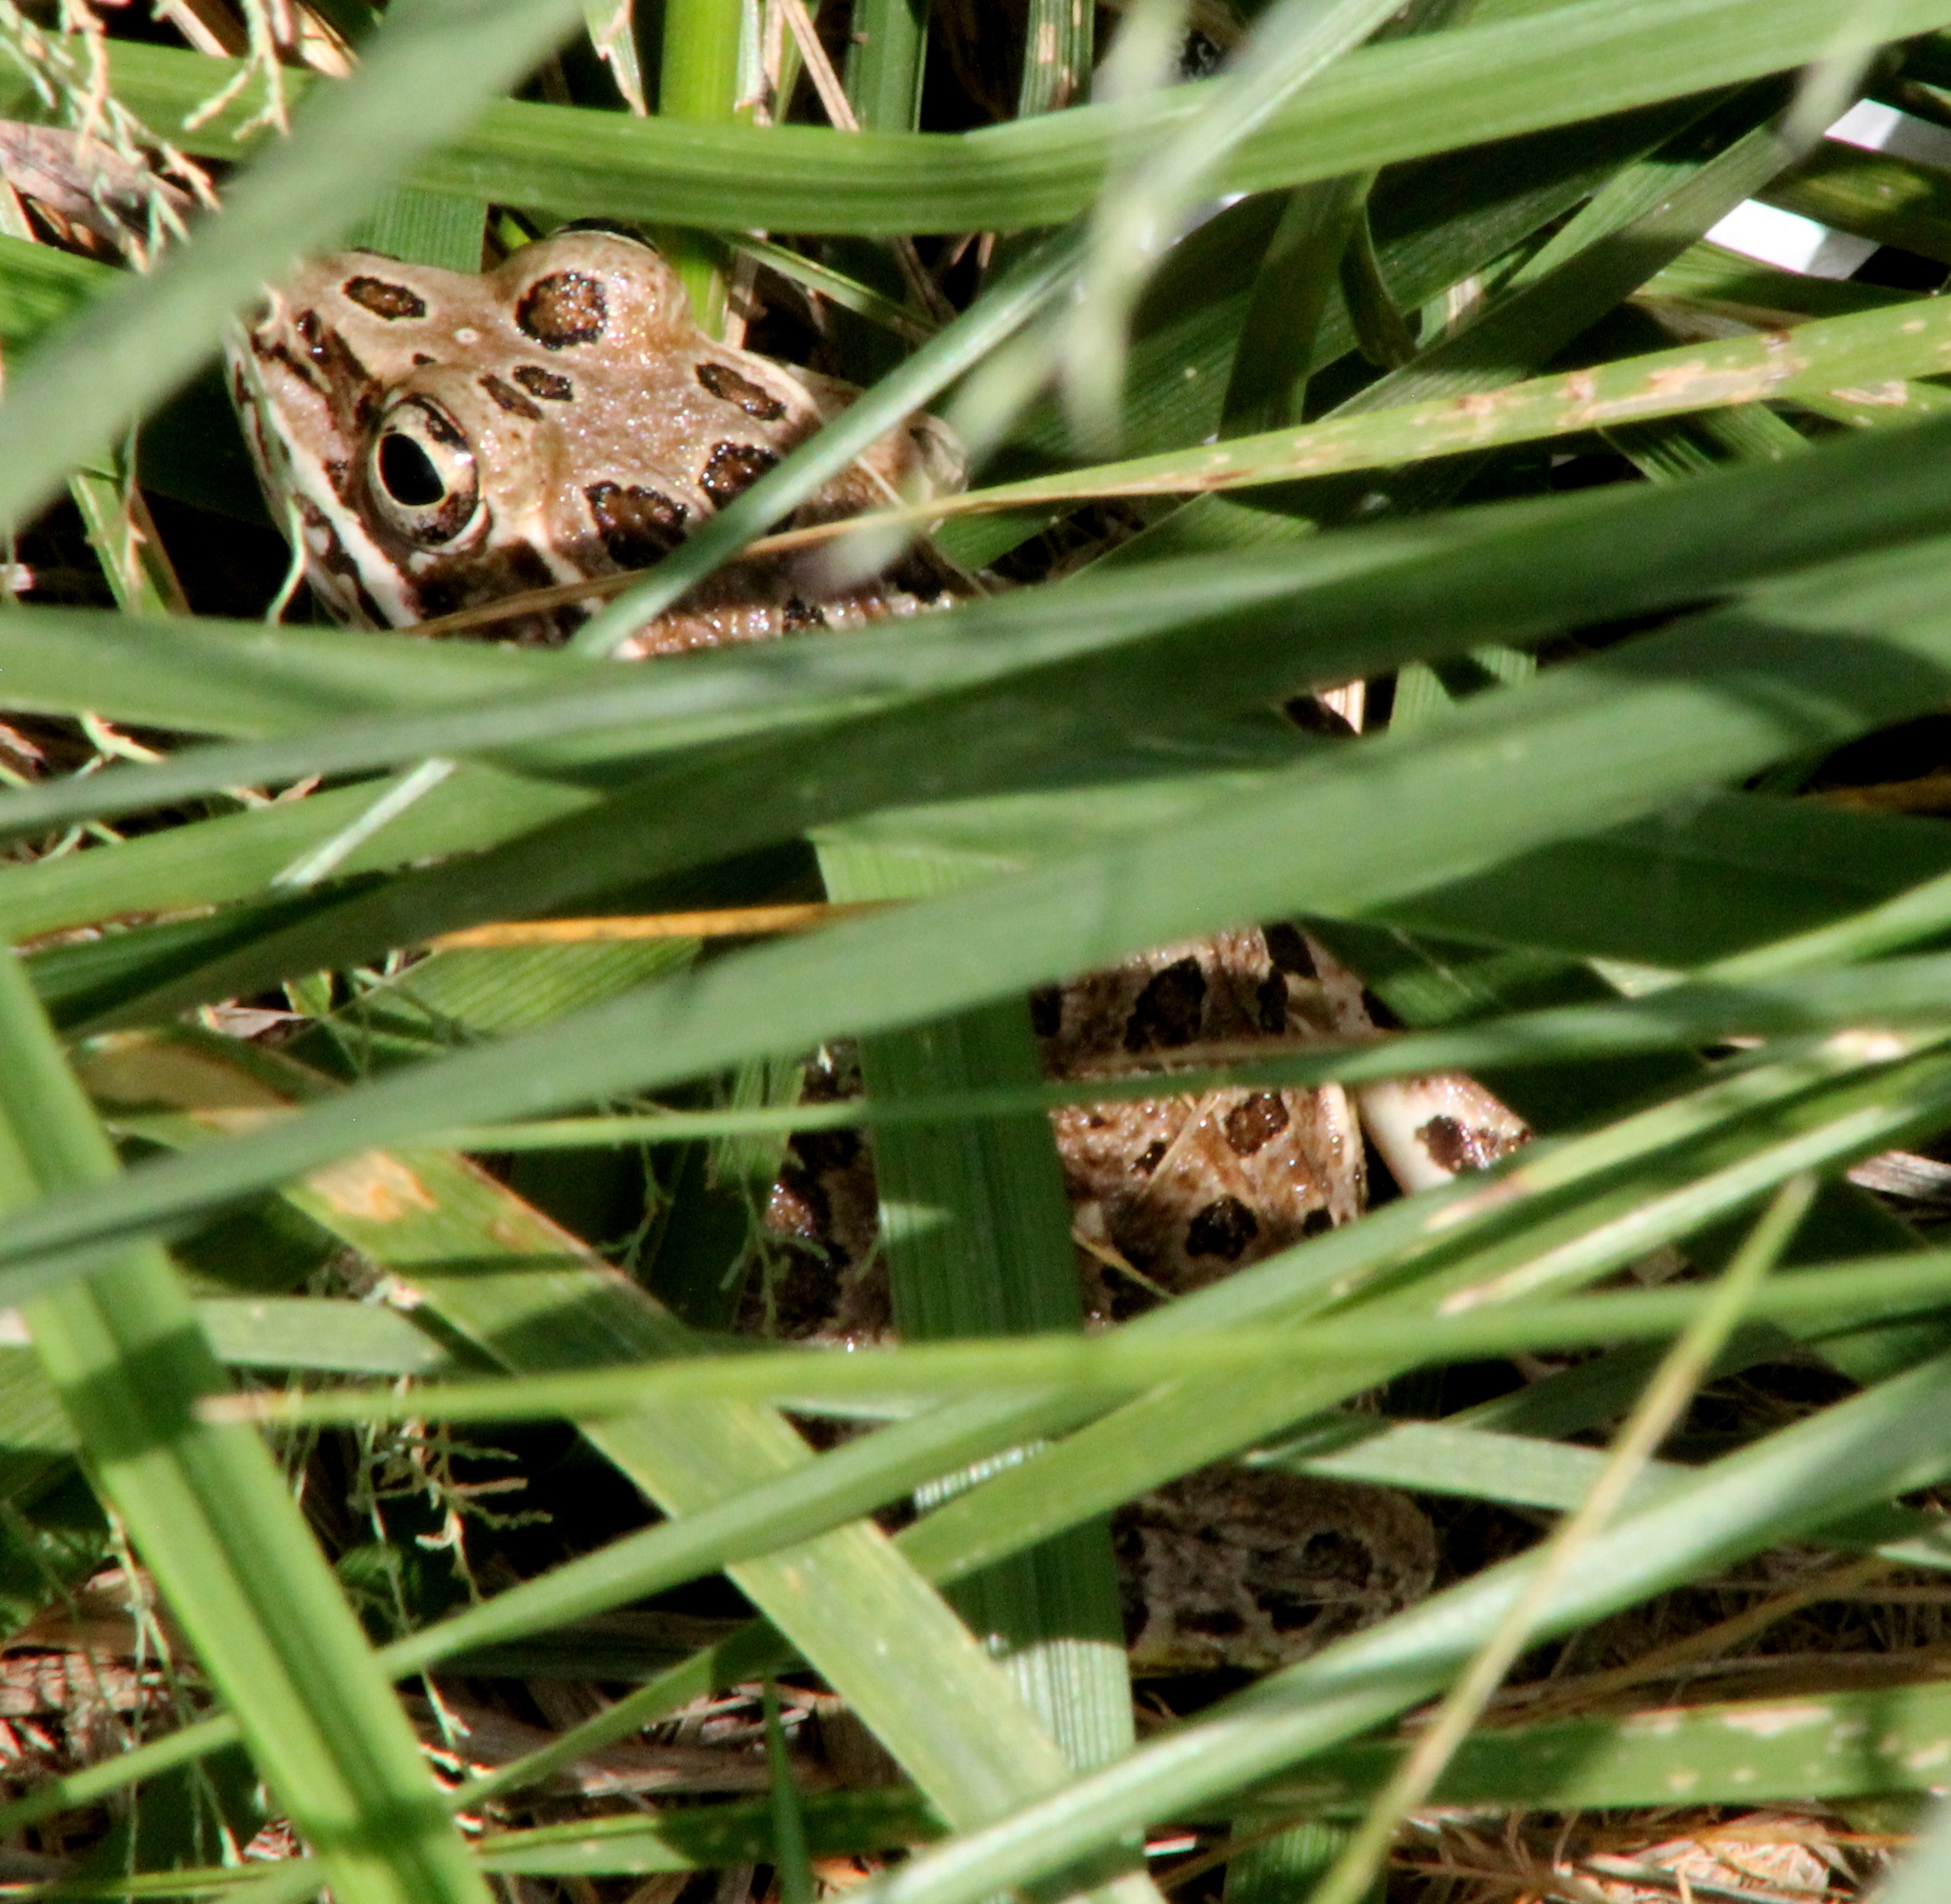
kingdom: Animalia
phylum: Chordata
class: Amphibia
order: Anura
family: Ranidae
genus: Lithobates
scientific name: Lithobates blairi
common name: Plains leopard frog
